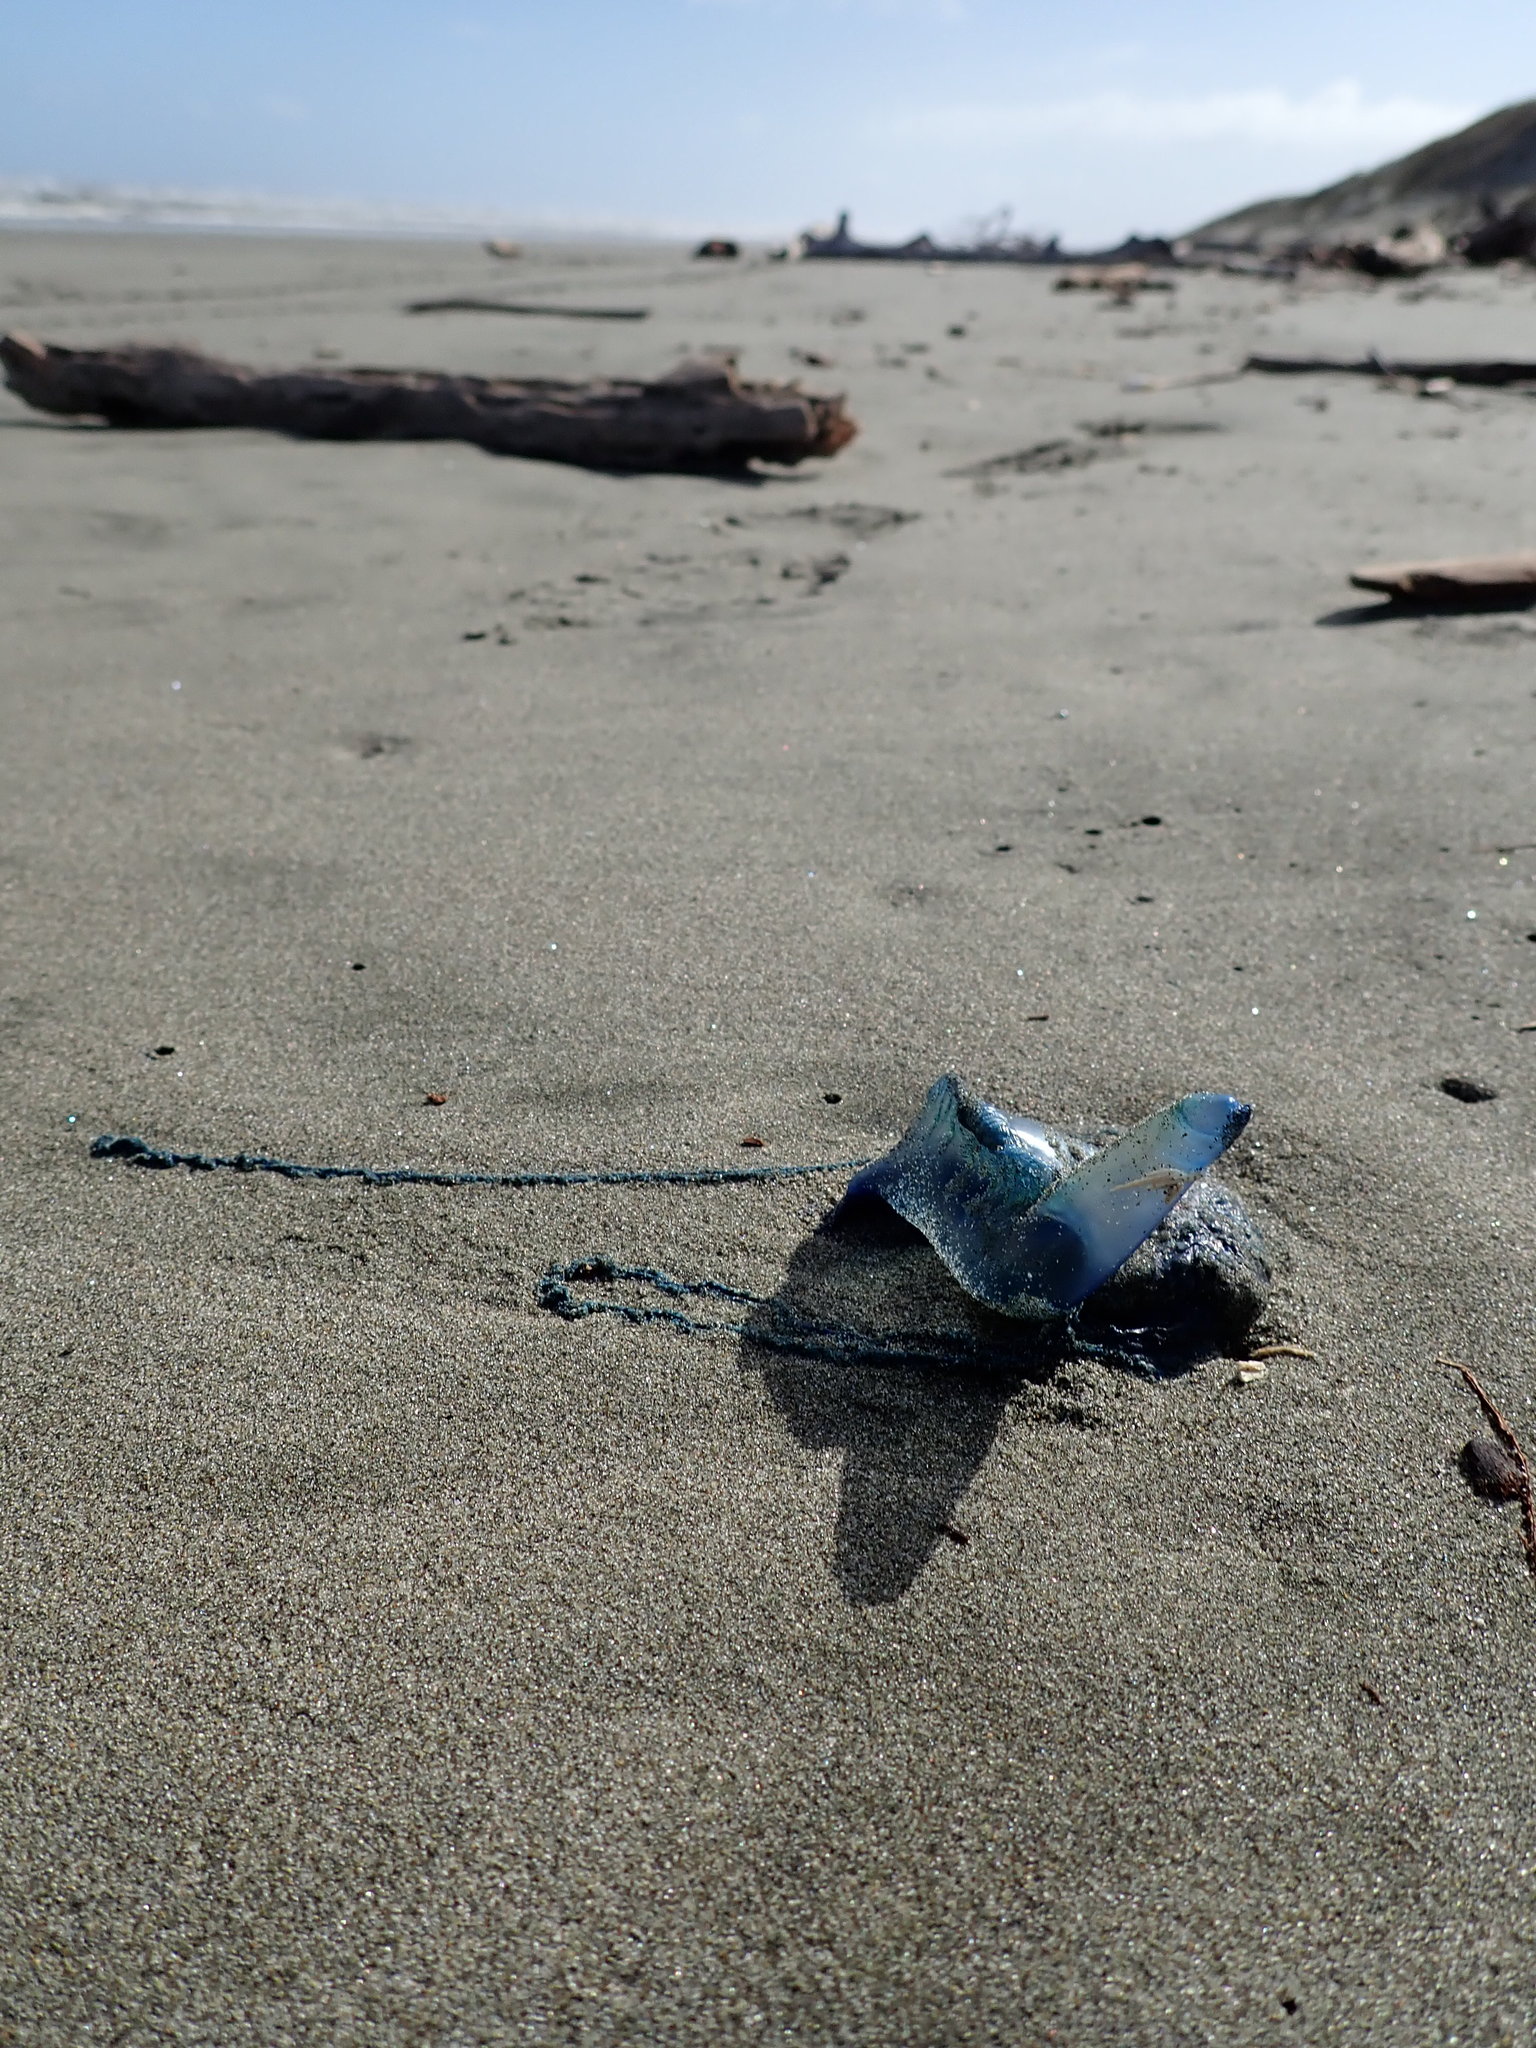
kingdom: Animalia
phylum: Cnidaria
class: Hydrozoa
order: Siphonophorae
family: Physaliidae
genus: Physalia
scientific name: Physalia physalis
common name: Portuguese man-of-war
